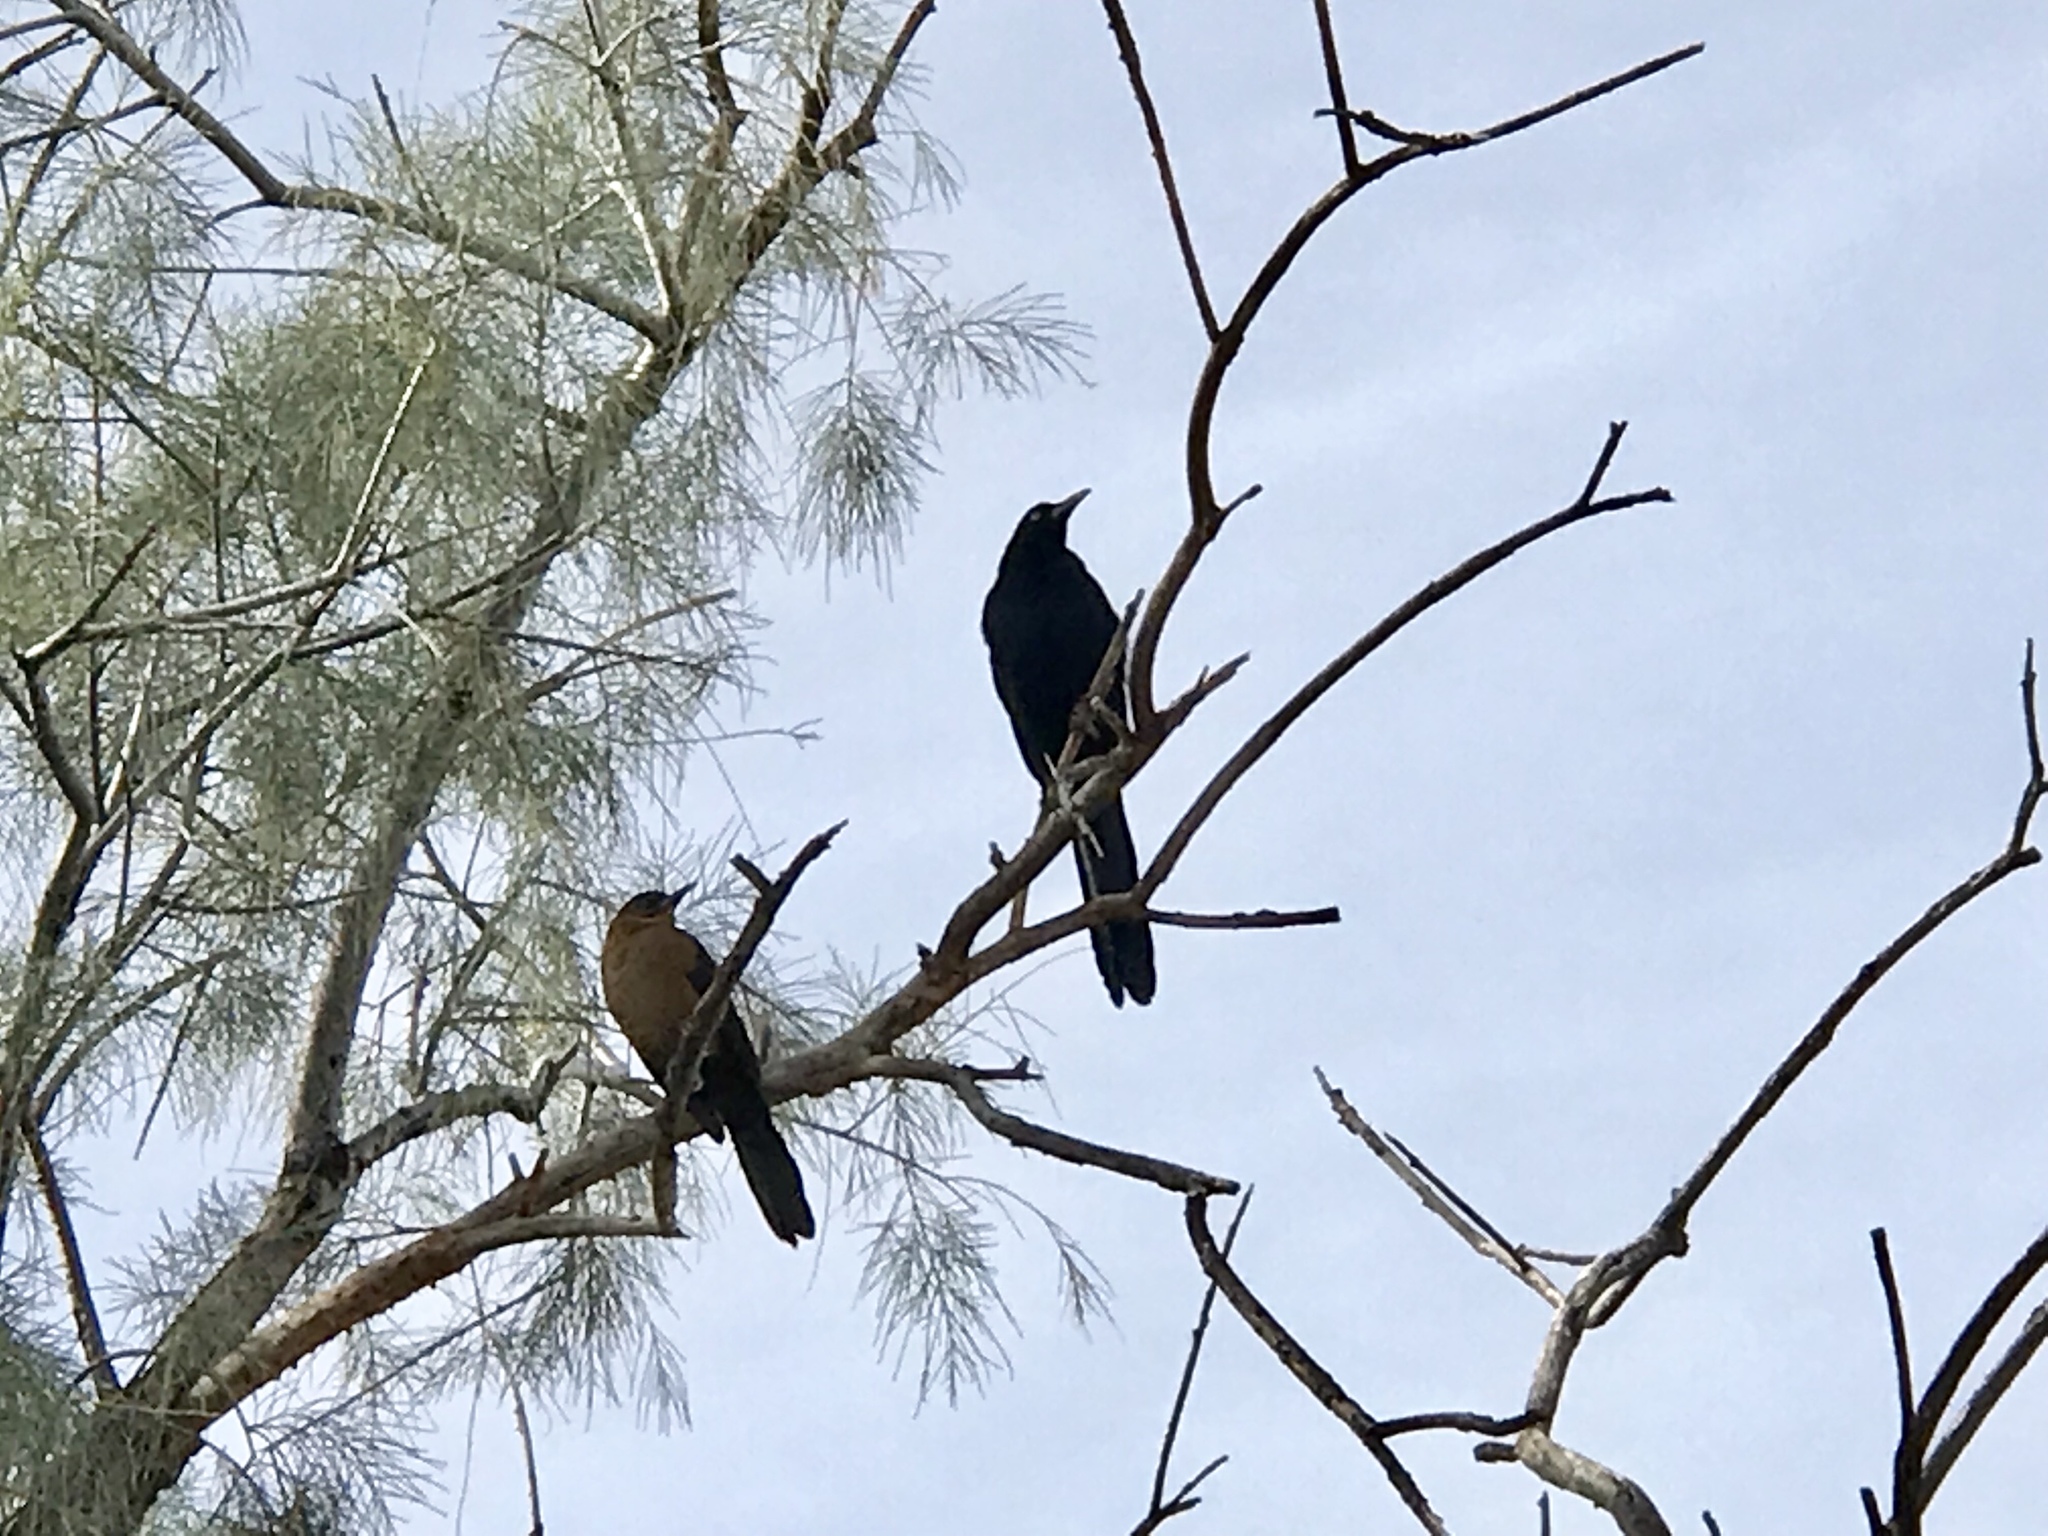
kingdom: Animalia
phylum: Chordata
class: Aves
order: Passeriformes
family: Icteridae
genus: Quiscalus
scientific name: Quiscalus mexicanus
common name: Great-tailed grackle
